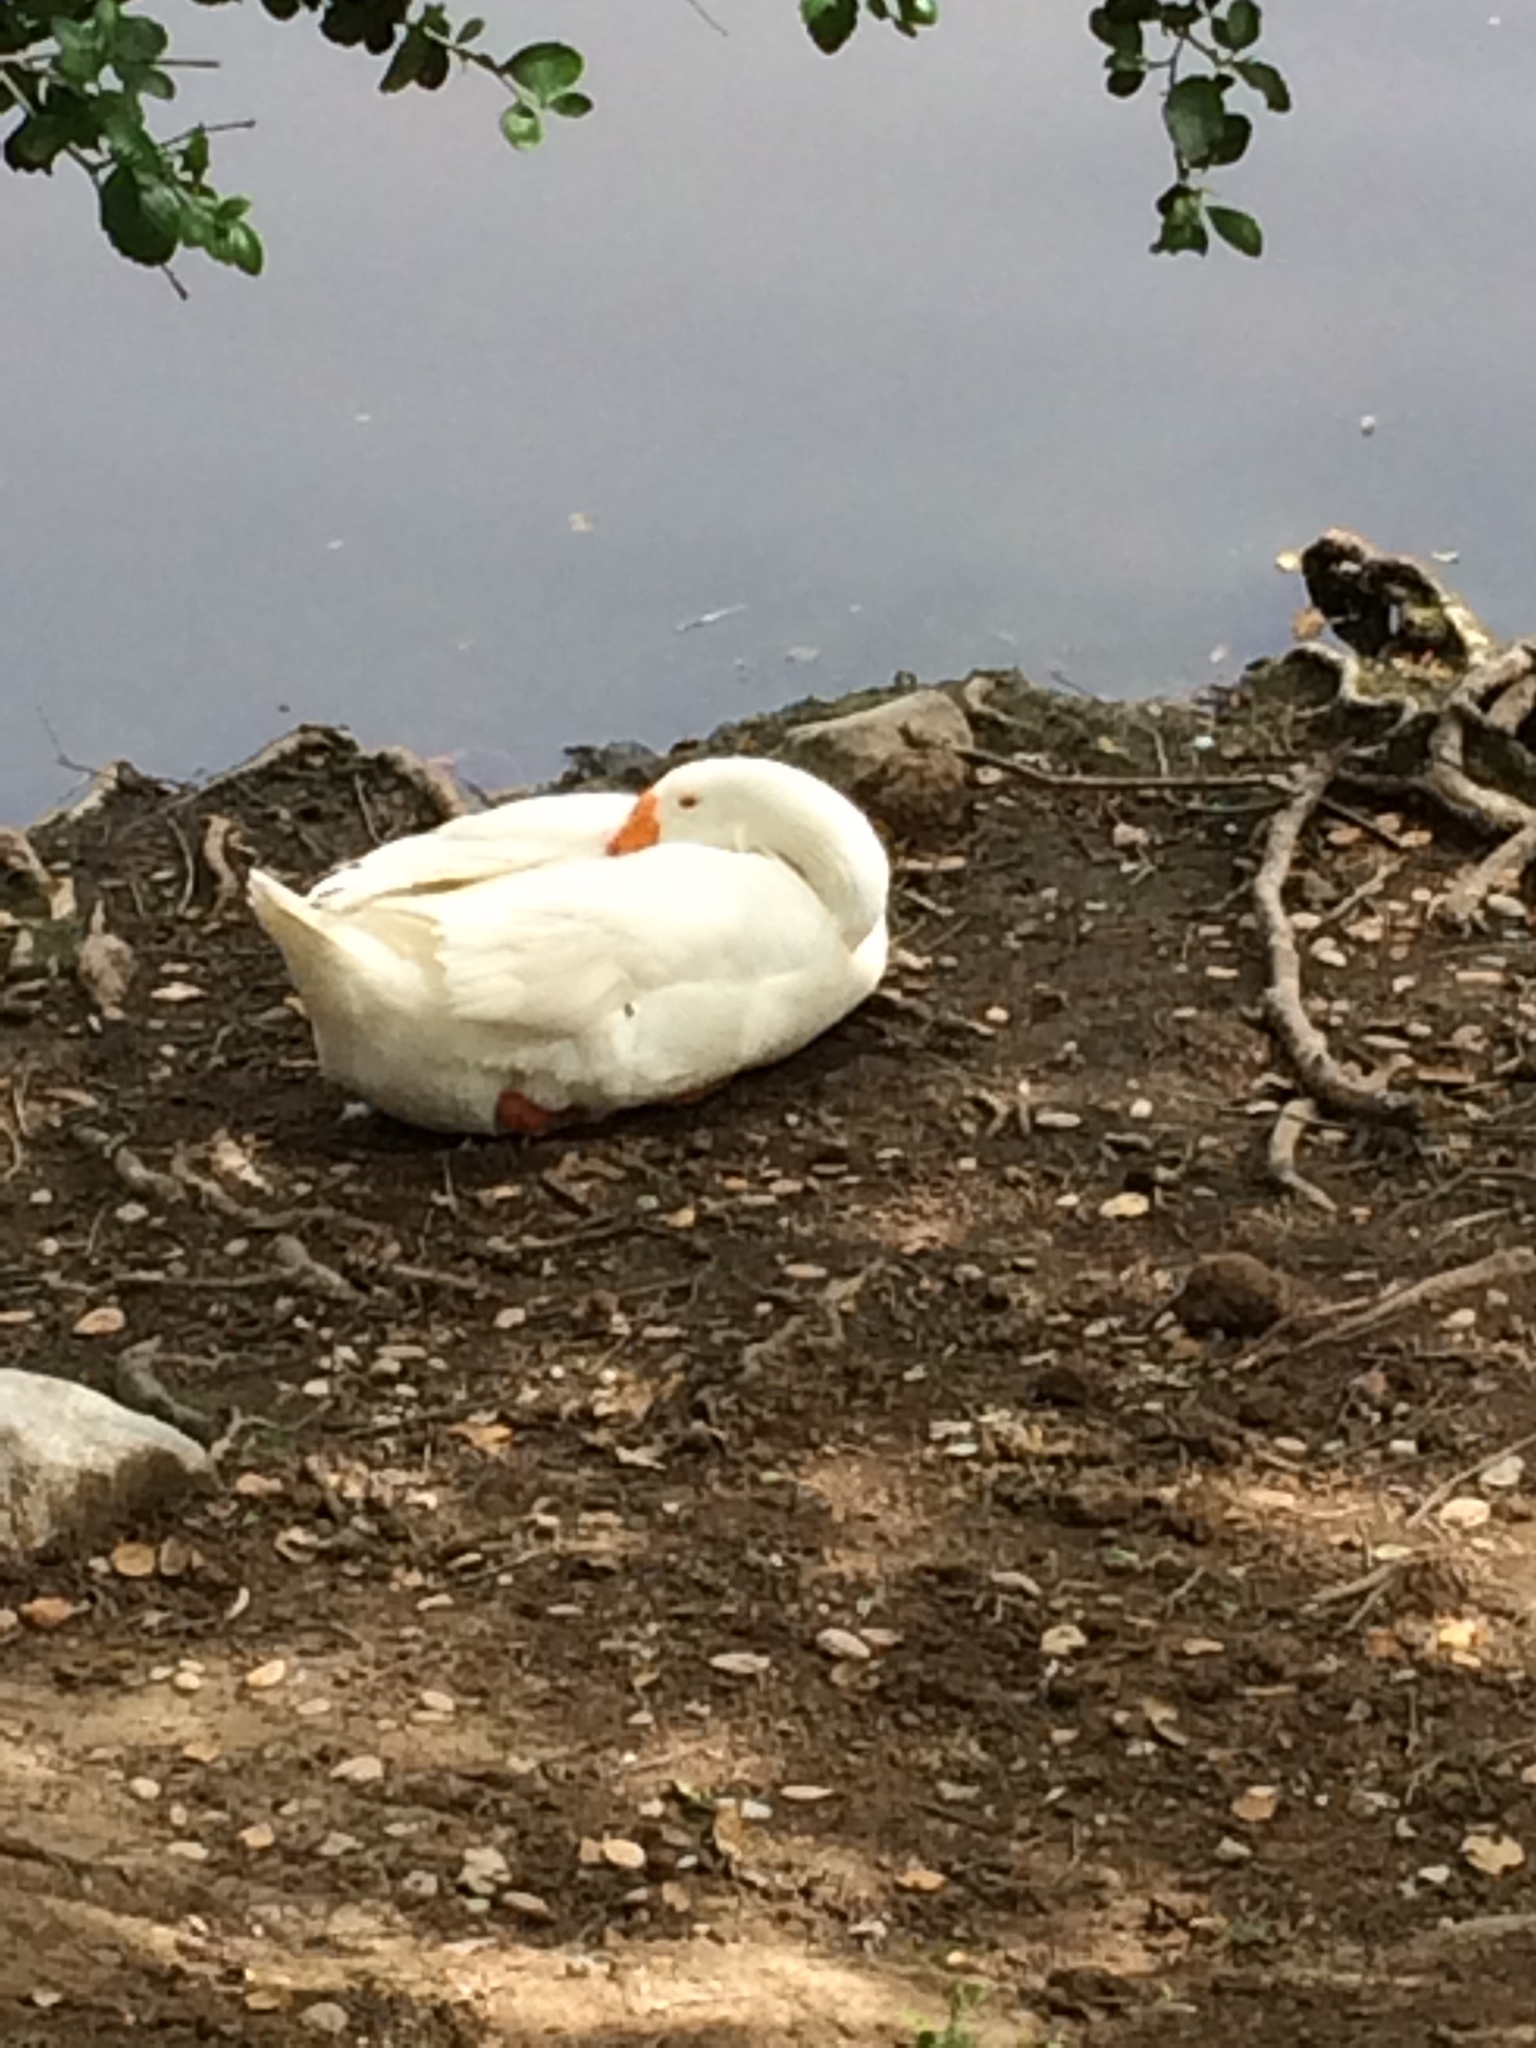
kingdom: Animalia
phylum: Chordata
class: Aves
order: Anseriformes
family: Anatidae
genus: Anser
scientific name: Anser anser
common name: Greylag goose
